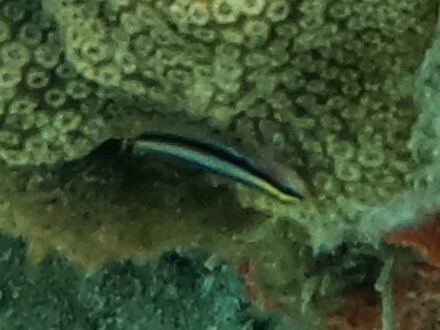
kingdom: Animalia
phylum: Chordata
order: Perciformes
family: Gobiidae
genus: Elacatinus
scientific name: Elacatinus evelynae
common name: Sharknose goby
